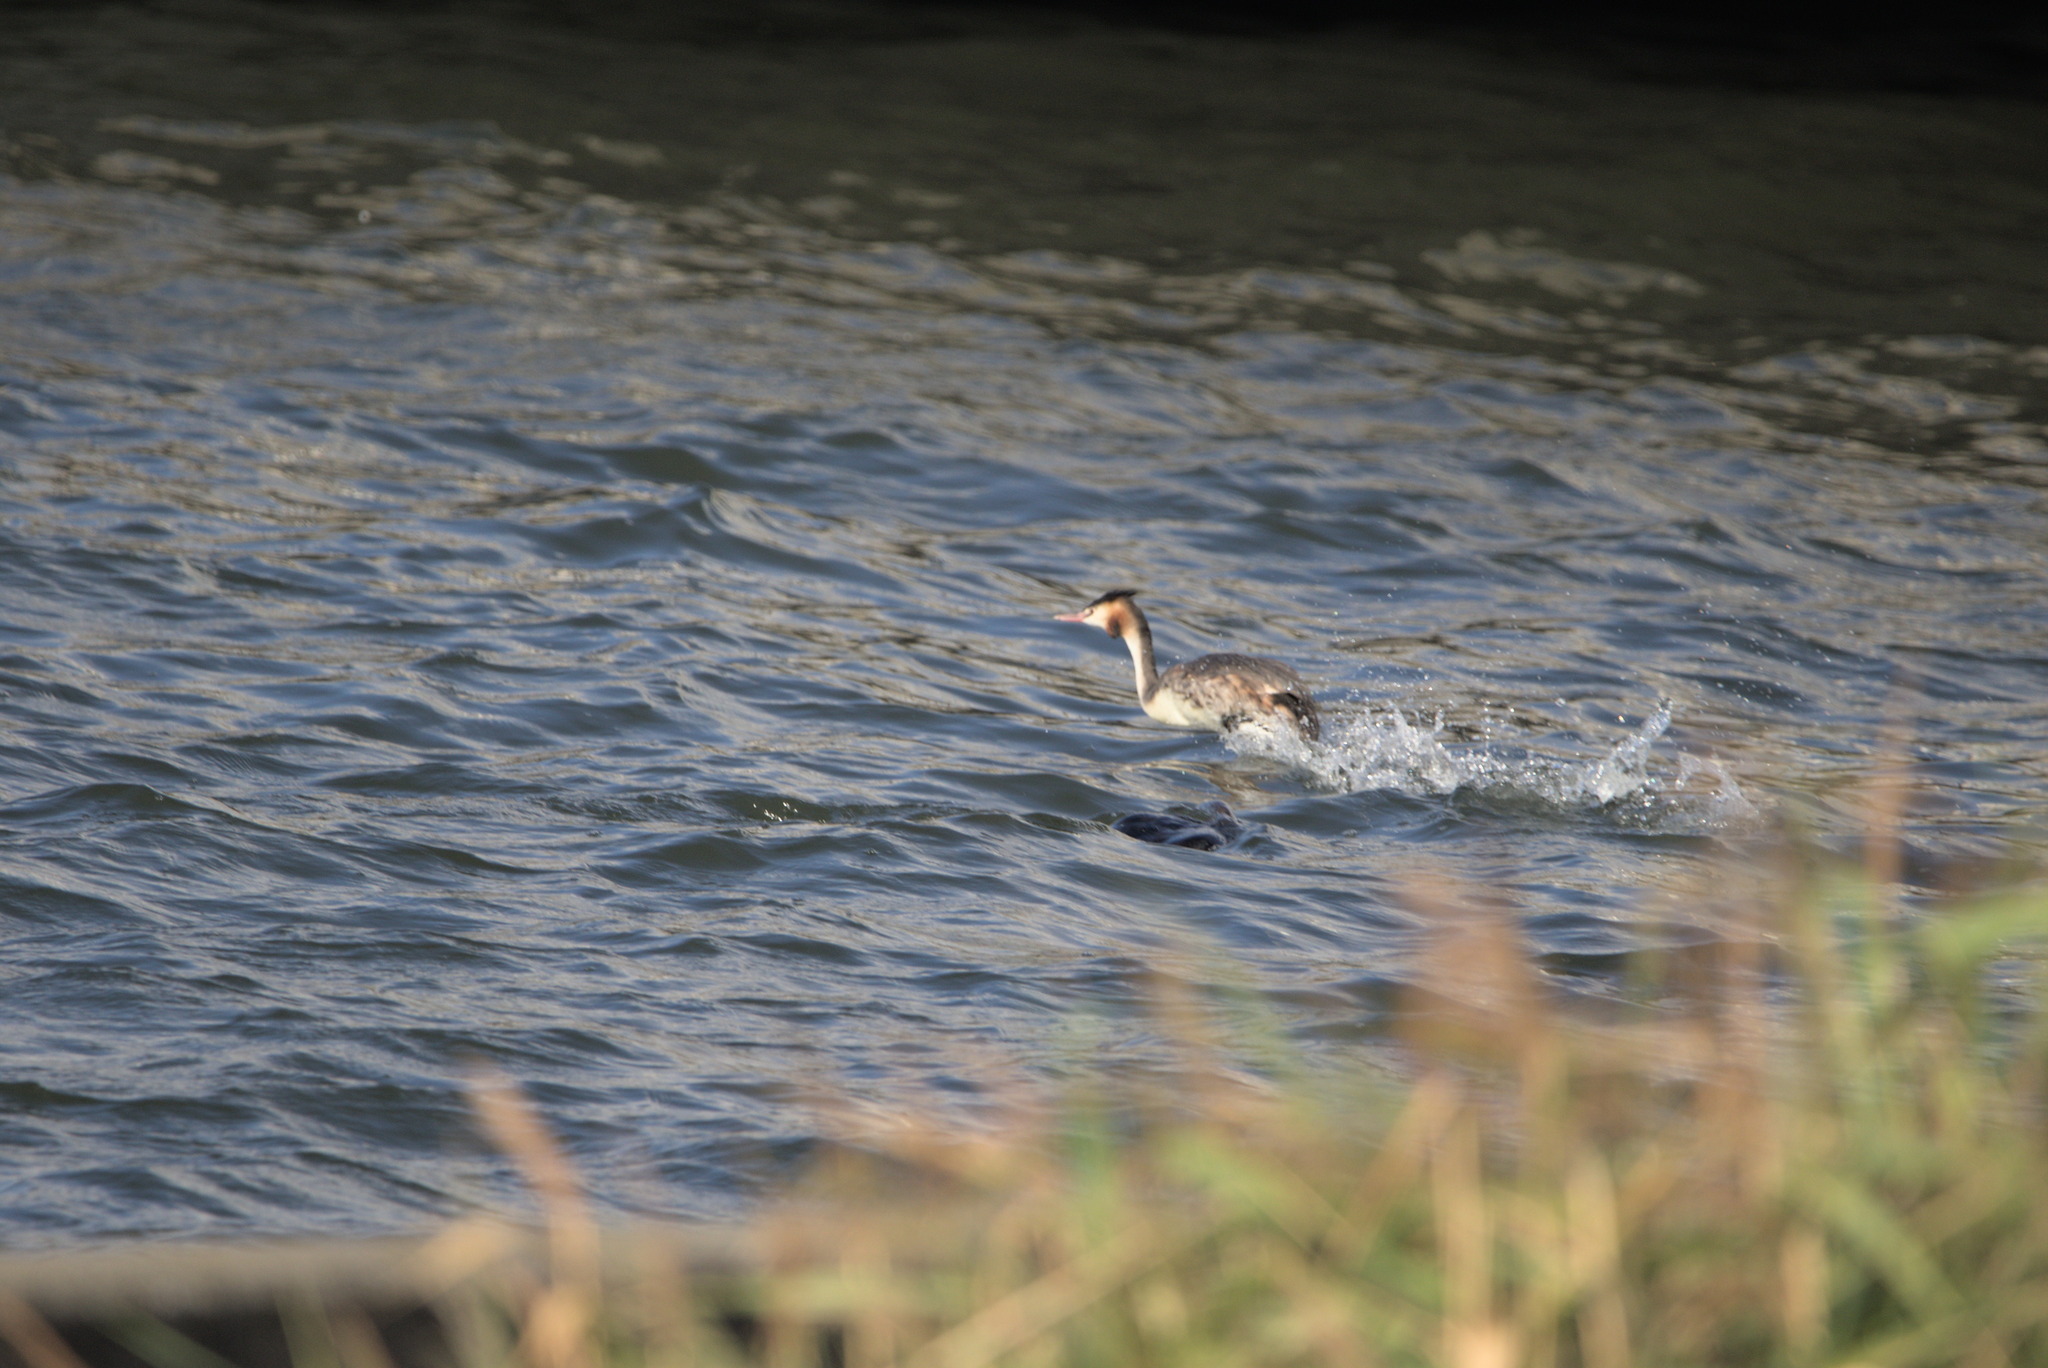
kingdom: Animalia
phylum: Chordata
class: Aves
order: Podicipediformes
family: Podicipedidae
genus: Podiceps
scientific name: Podiceps cristatus
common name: Great crested grebe
